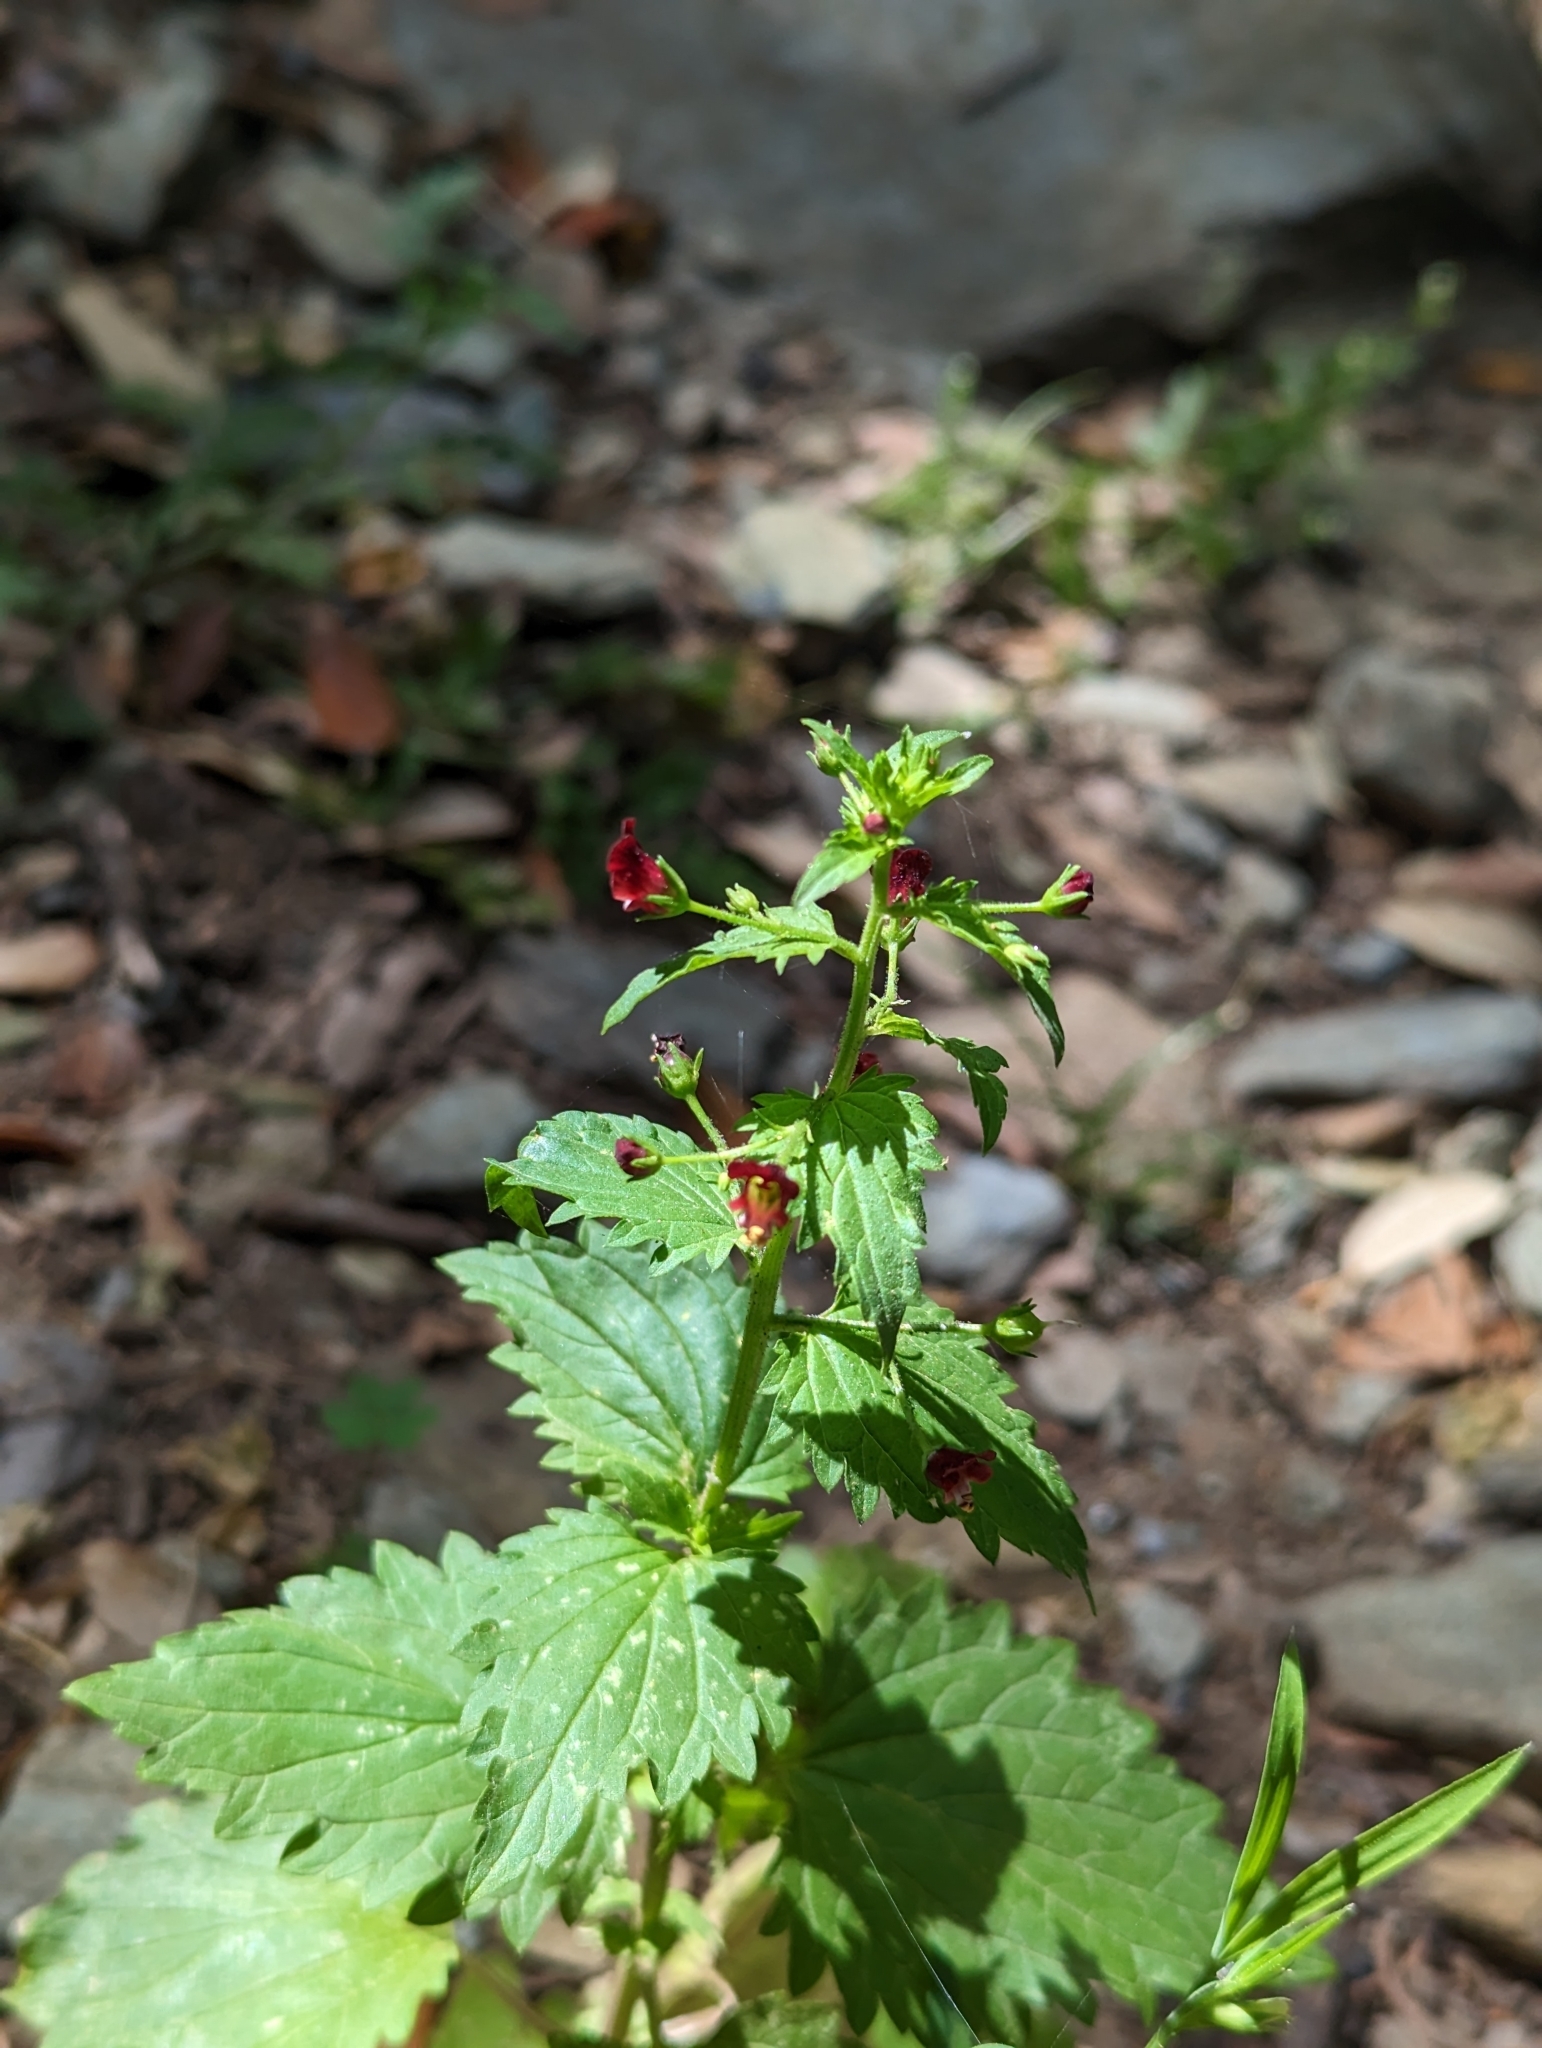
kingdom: Plantae
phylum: Tracheophyta
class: Magnoliopsida
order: Lamiales
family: Scrophulariaceae
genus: Scrophularia
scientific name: Scrophularia peregrina
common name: Mediterranean figwort
